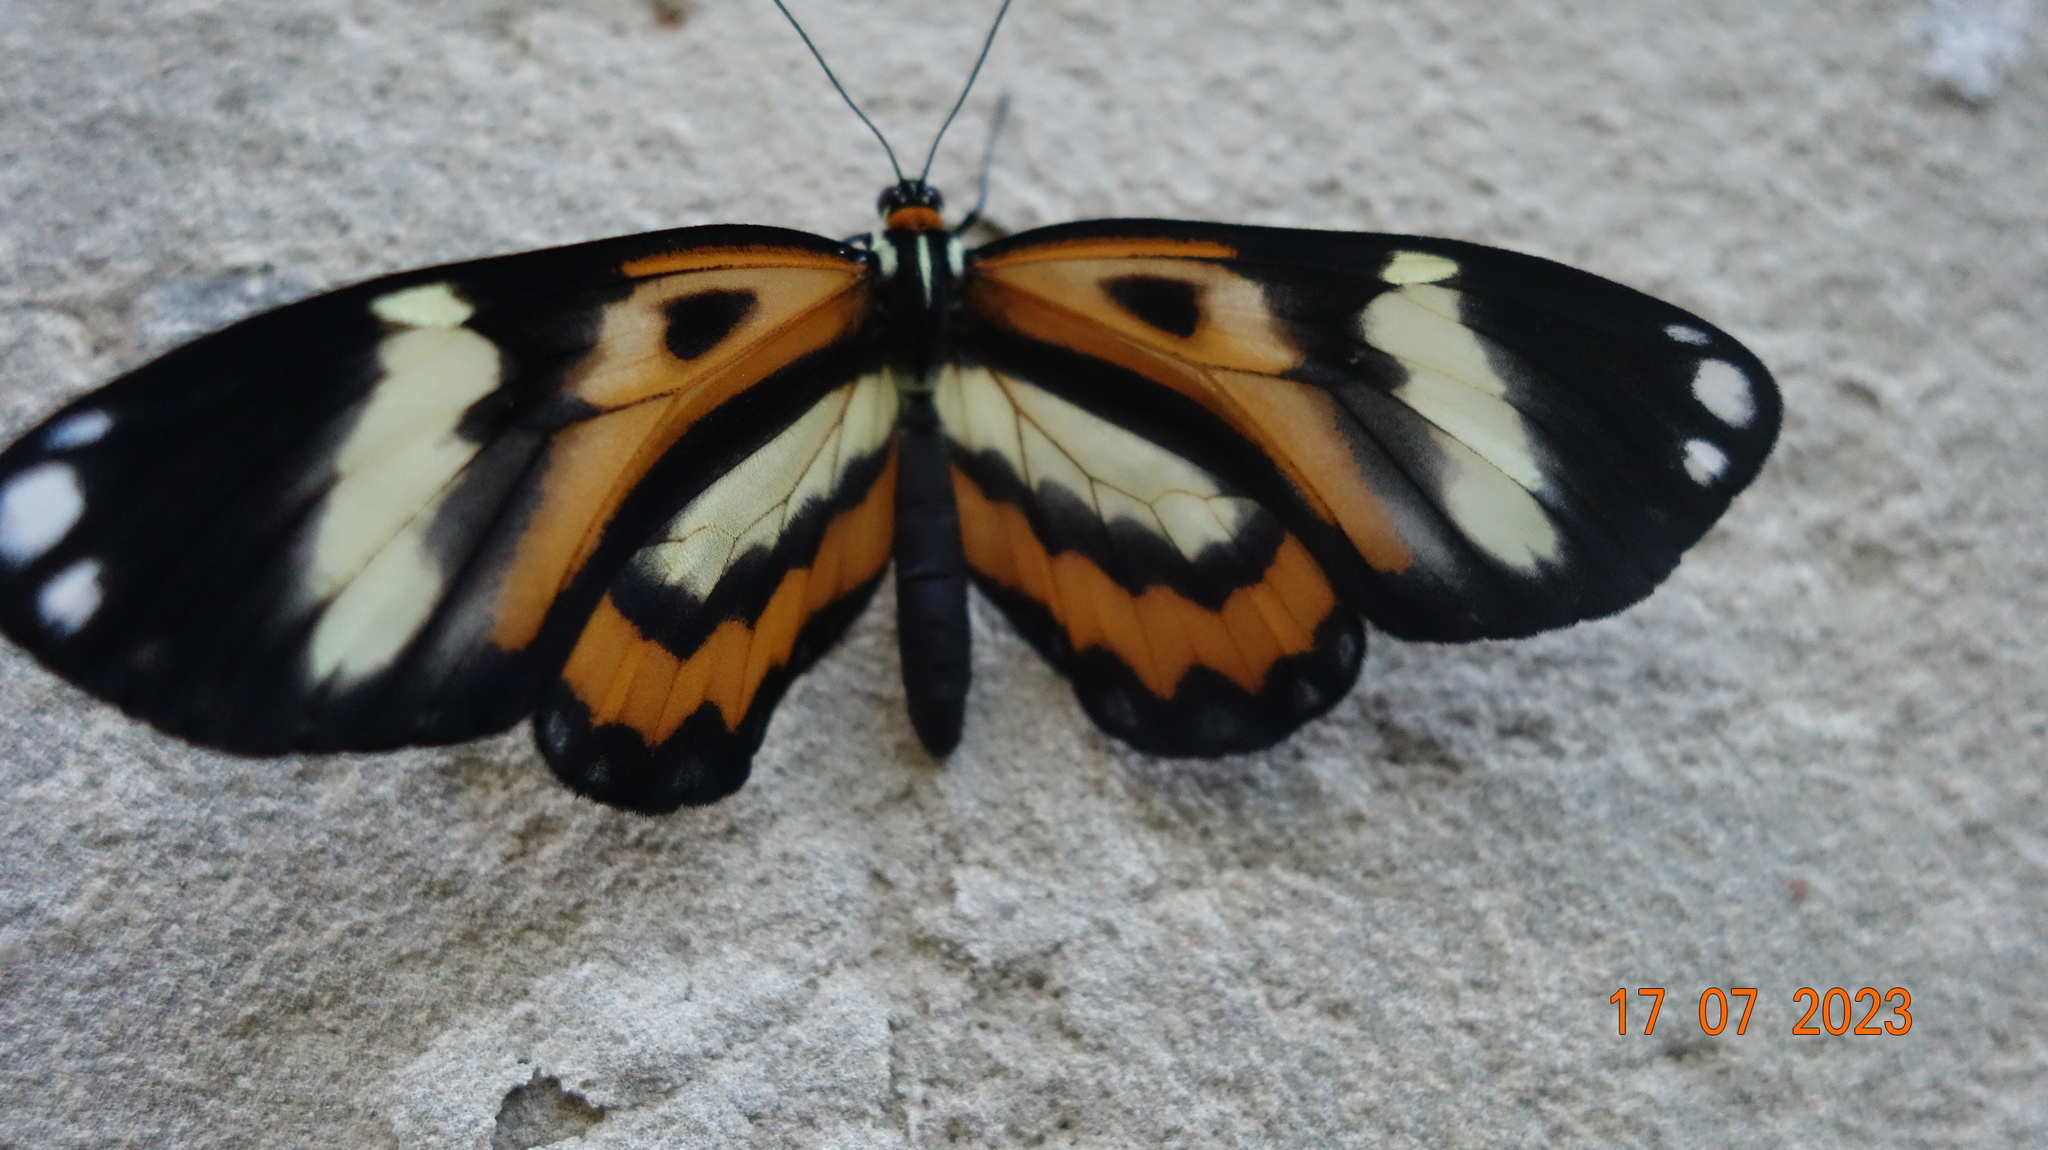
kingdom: Animalia
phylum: Arthropoda
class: Insecta
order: Lepidoptera
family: Nymphalidae
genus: Placidina
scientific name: Placidina euryanassa
